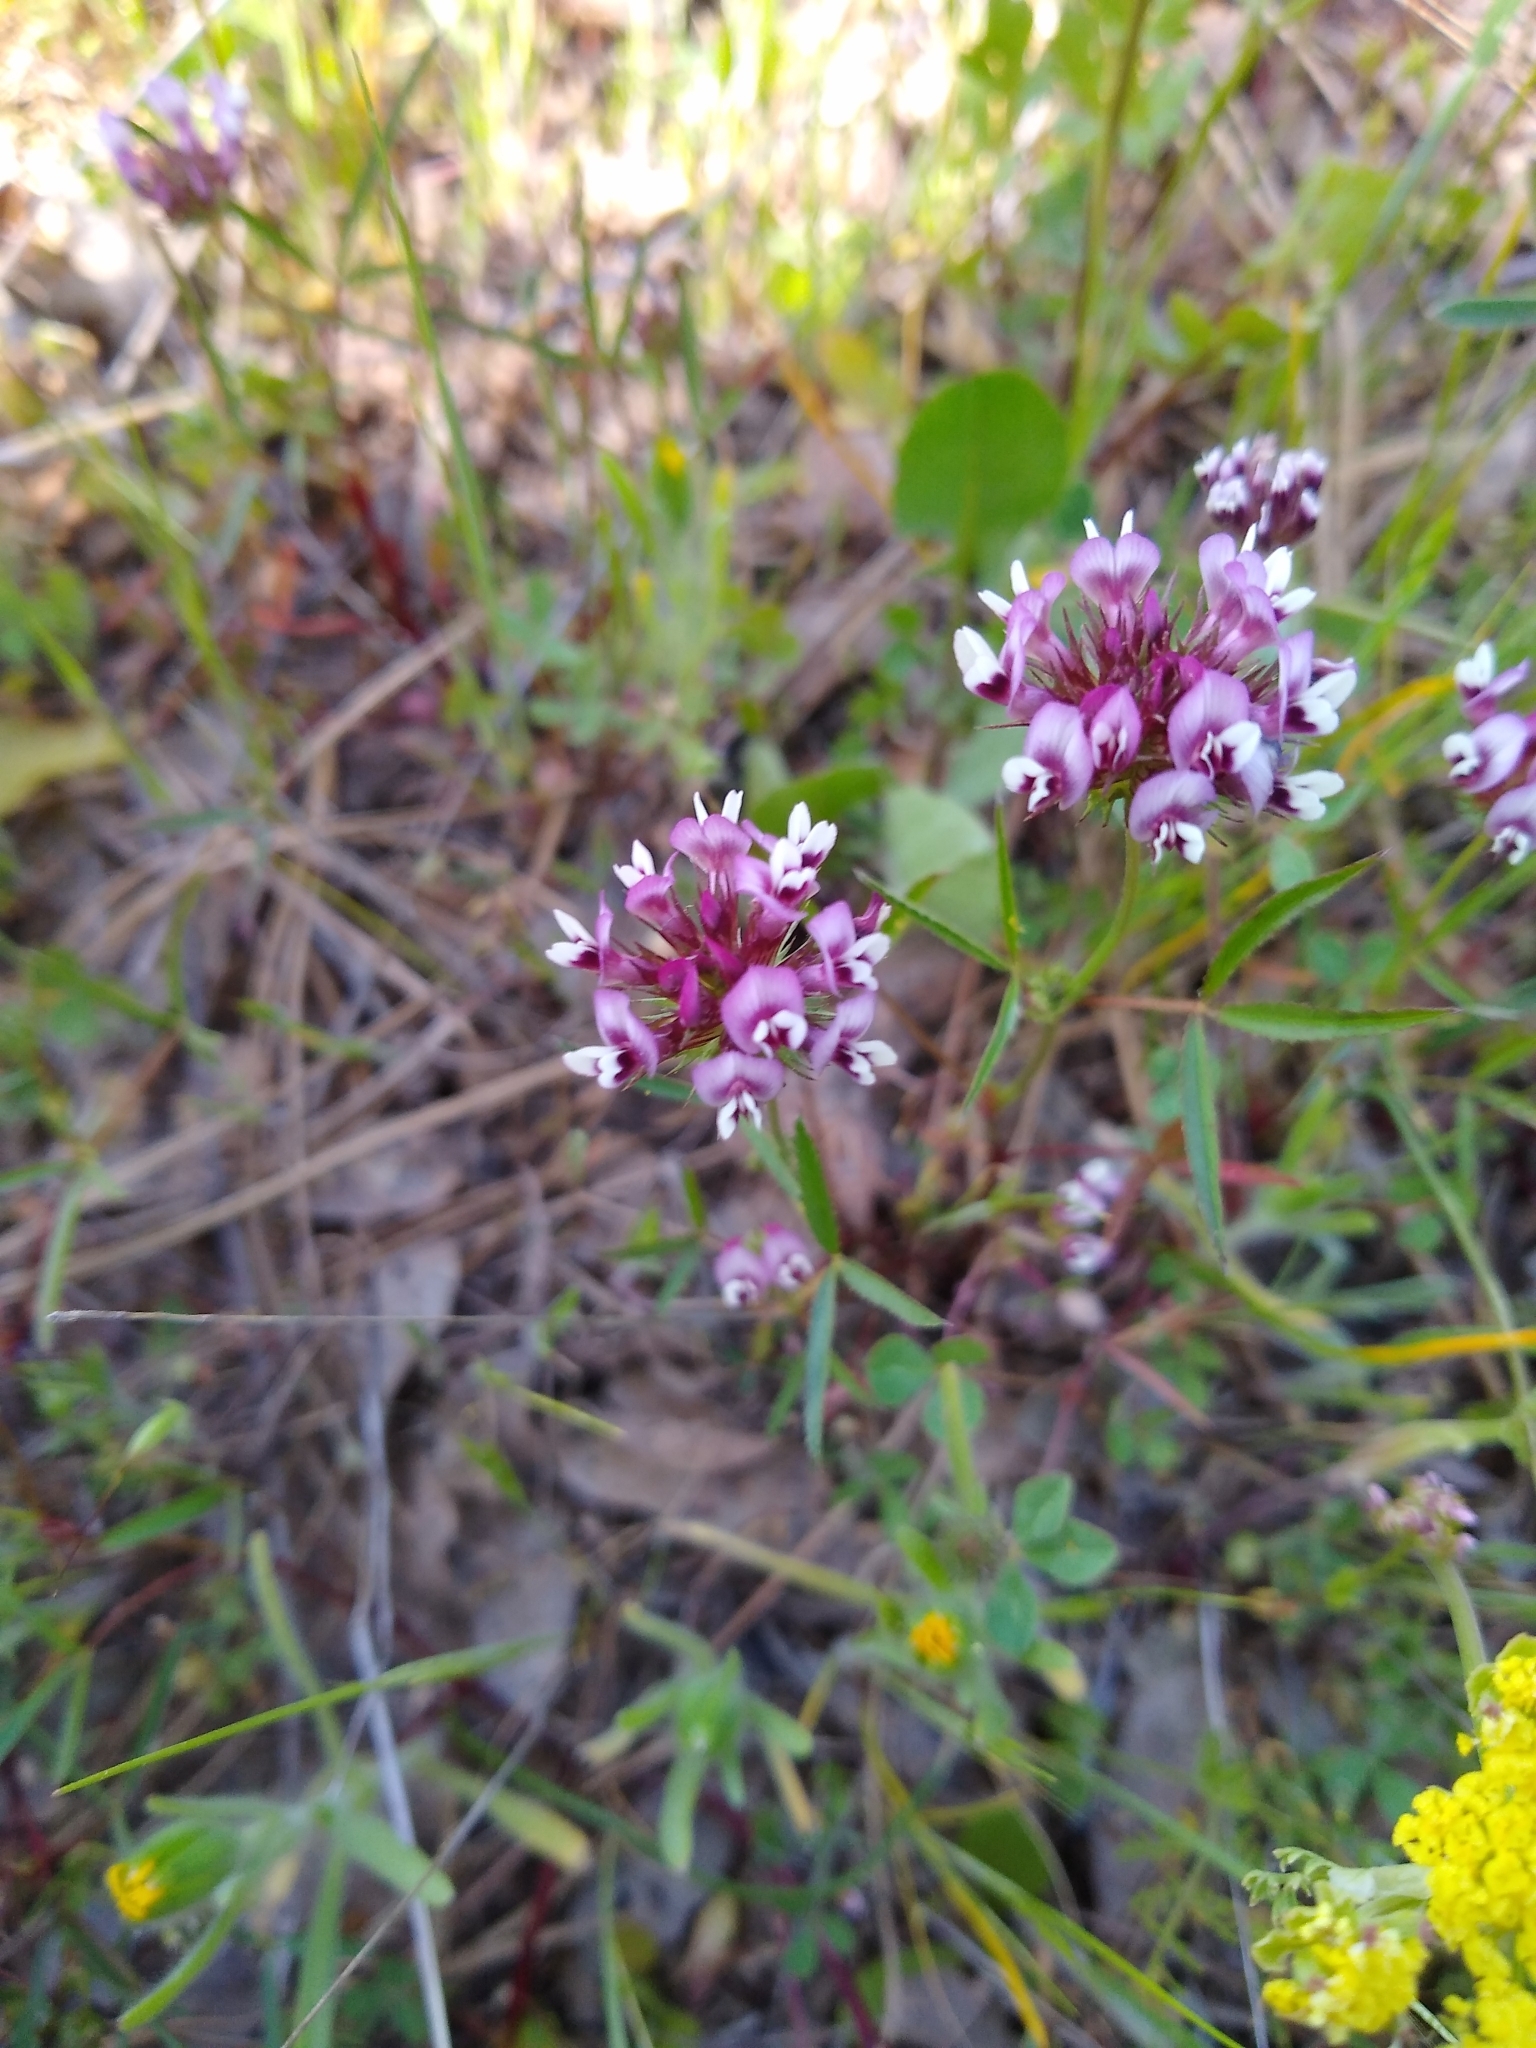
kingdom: Plantae
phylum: Tracheophyta
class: Magnoliopsida
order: Fabales
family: Fabaceae
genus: Trifolium
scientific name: Trifolium willdenovii
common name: Tomcat clover
